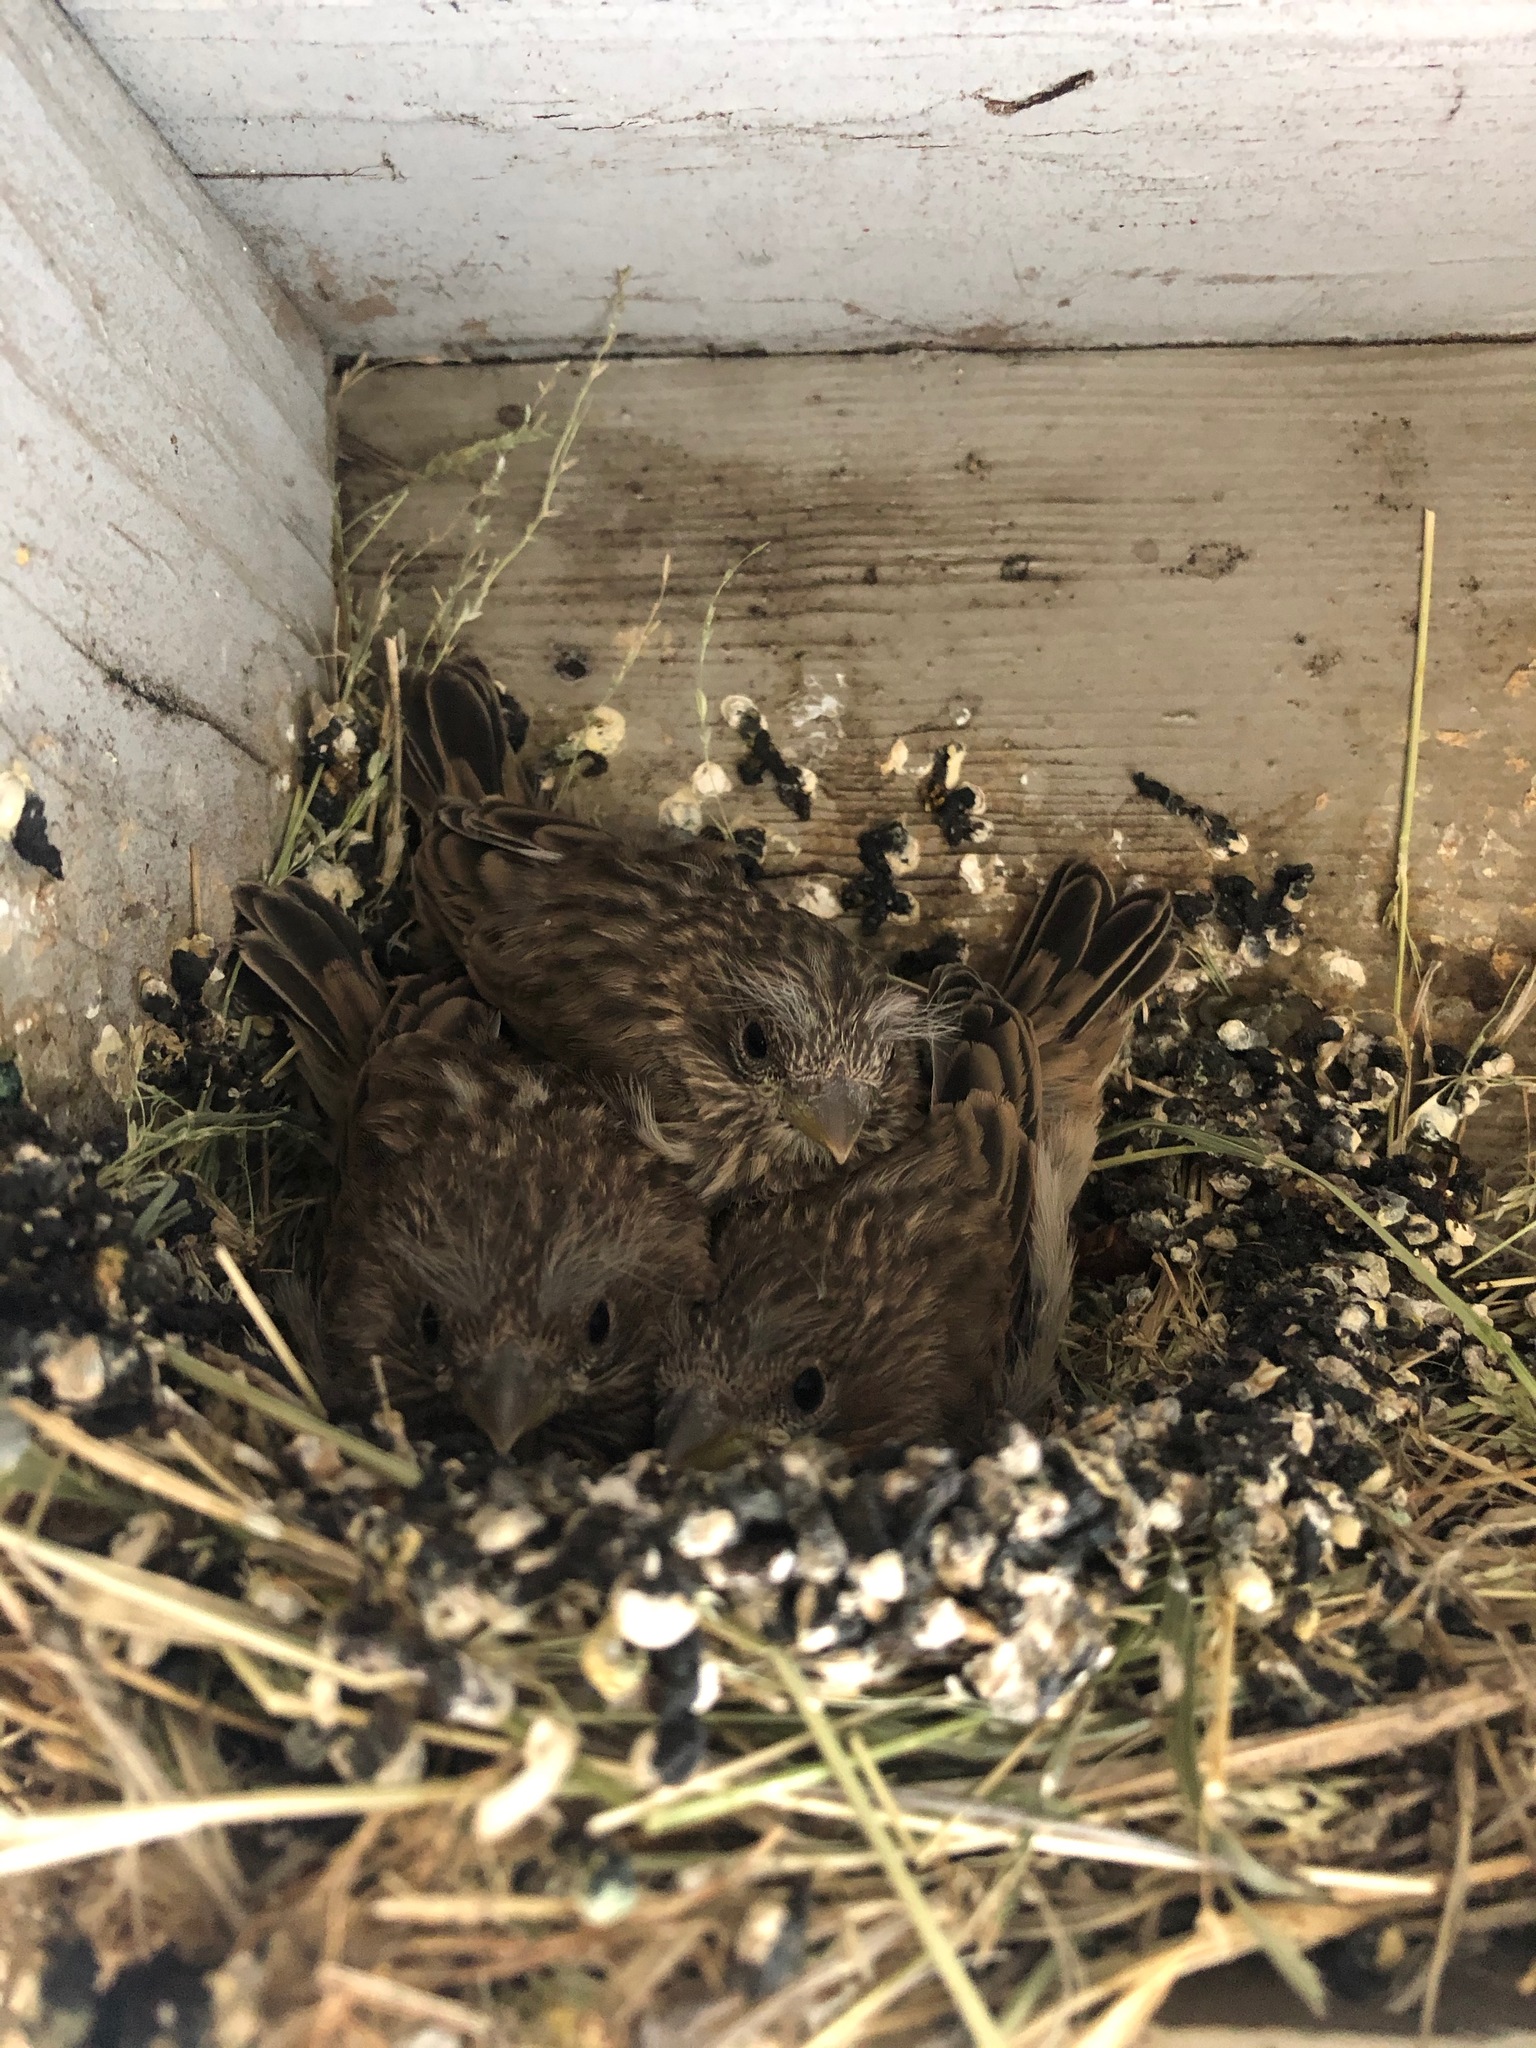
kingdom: Animalia
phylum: Chordata
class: Aves
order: Passeriformes
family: Fringillidae
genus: Haemorhous
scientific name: Haemorhous mexicanus
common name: House finch
